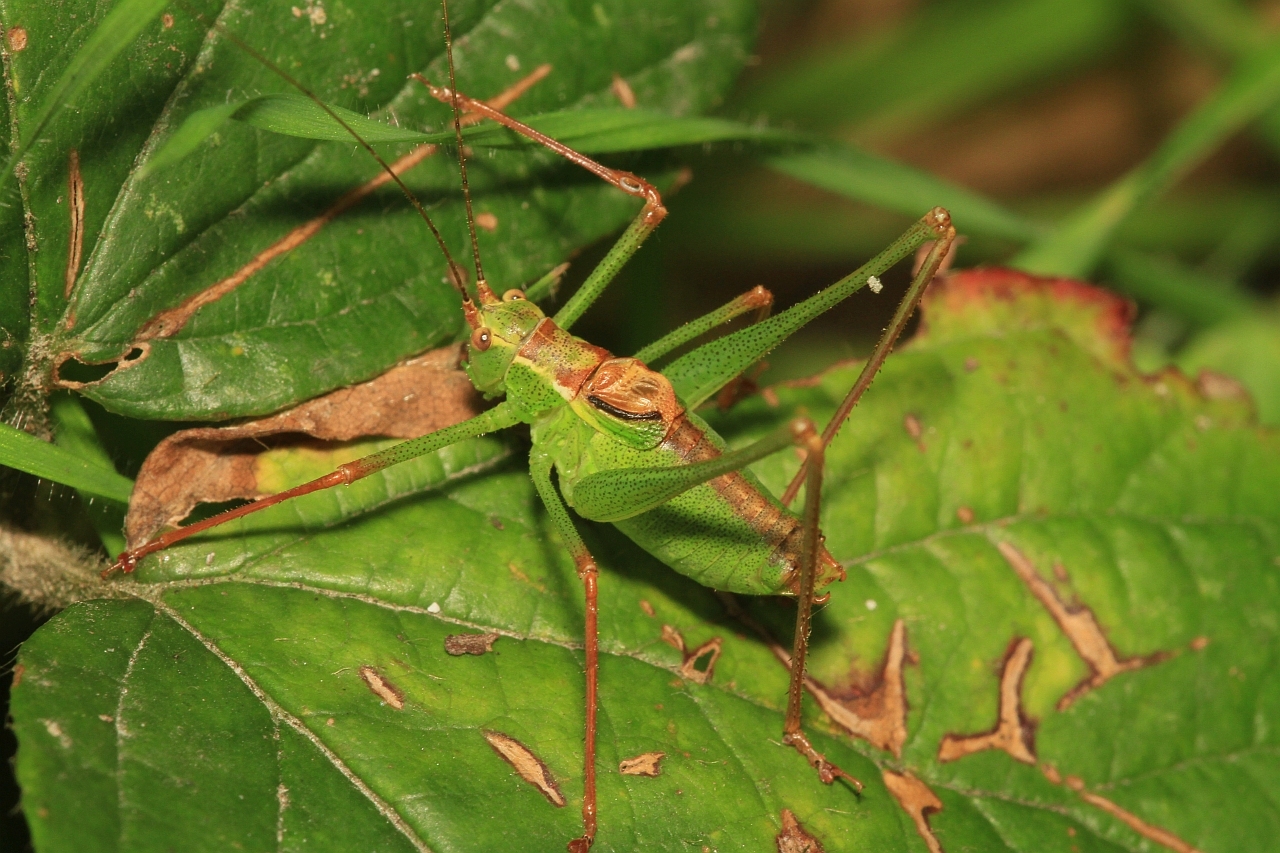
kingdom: Animalia
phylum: Arthropoda
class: Insecta
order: Orthoptera
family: Tettigoniidae
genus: Leptophyes
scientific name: Leptophyes punctatissima
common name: Speckled bush-cricket
